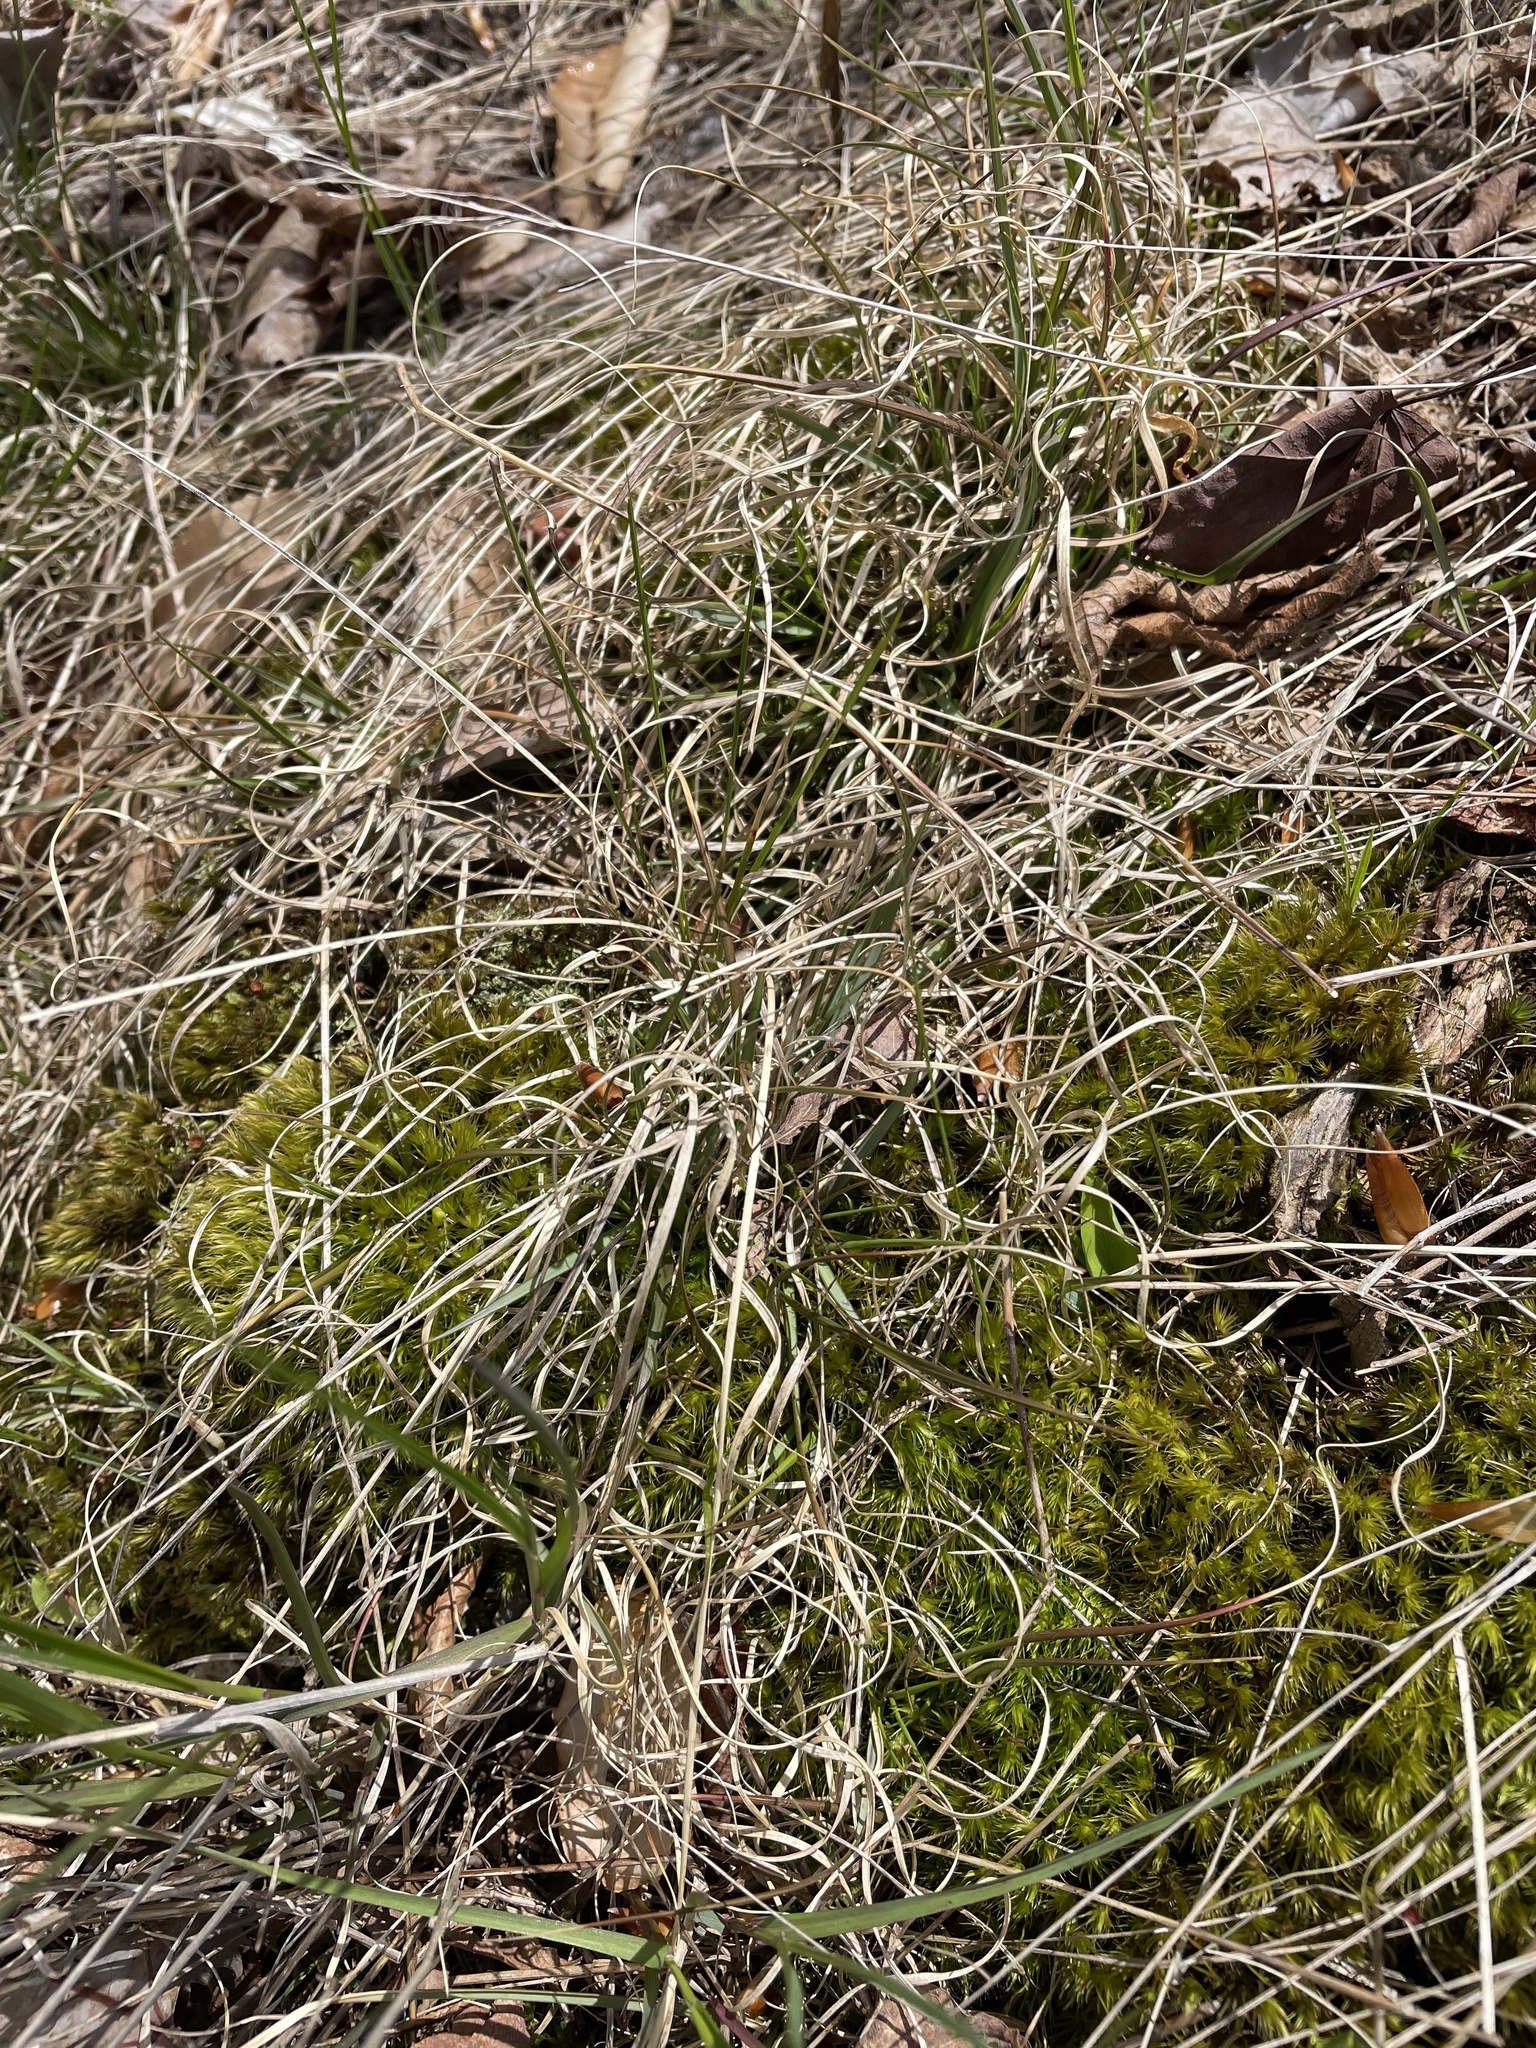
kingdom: Plantae
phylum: Tracheophyta
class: Liliopsida
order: Poales
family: Poaceae
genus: Danthonia
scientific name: Danthonia spicata
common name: Common wild oatgrass
